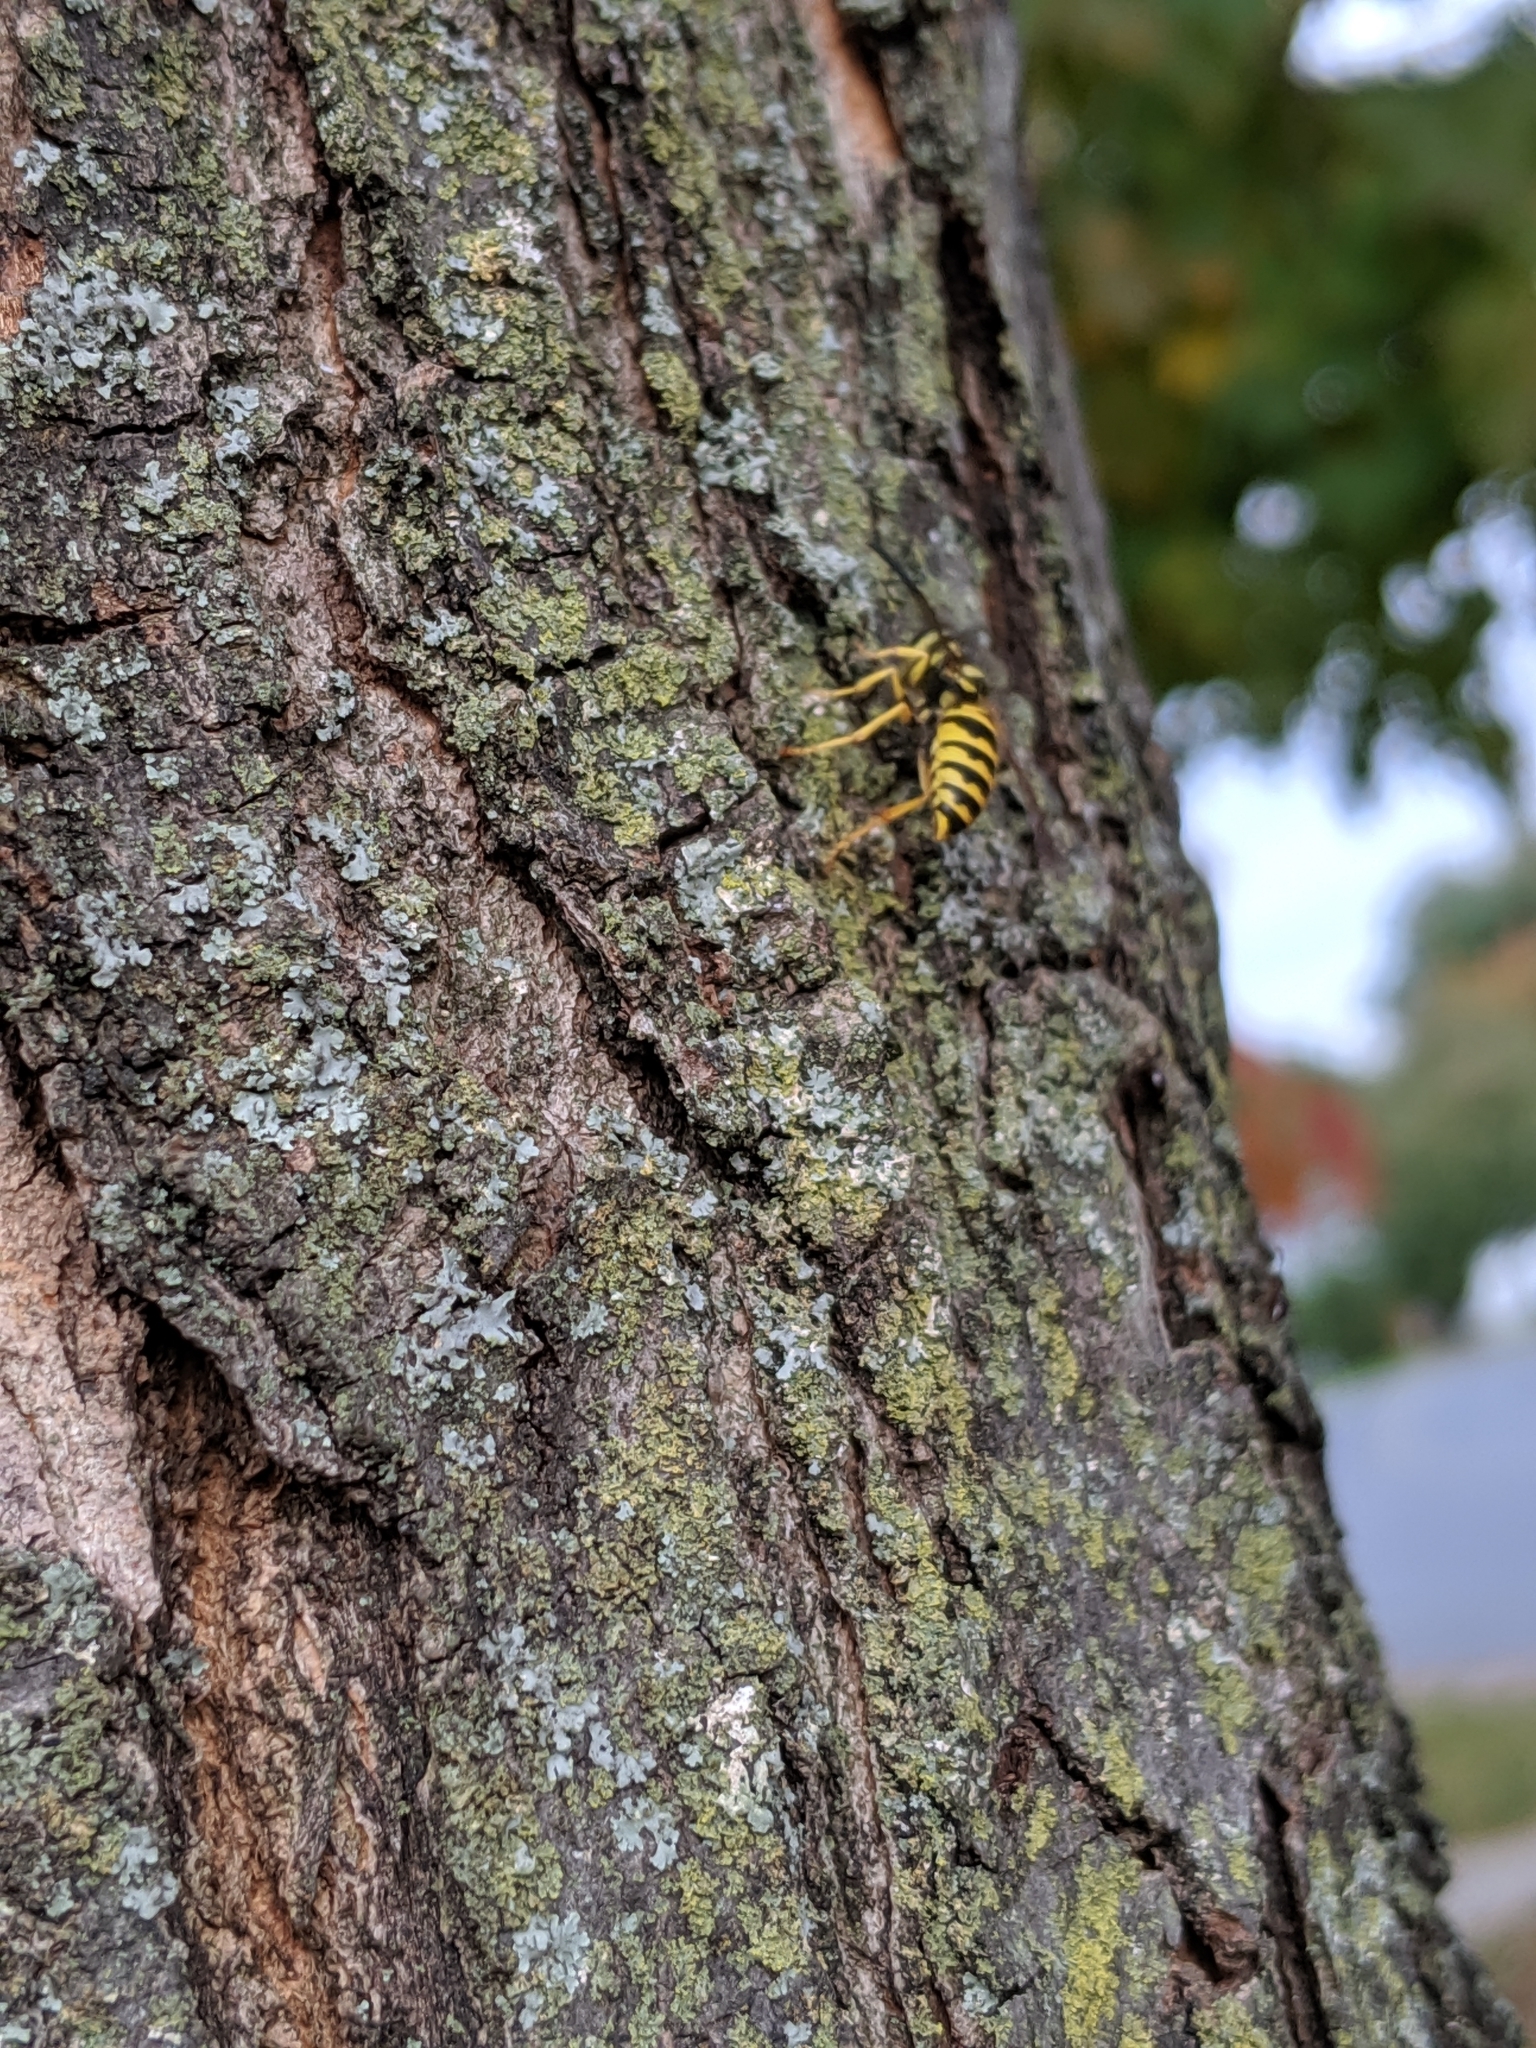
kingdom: Animalia
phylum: Arthropoda
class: Insecta
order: Hymenoptera
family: Vespidae
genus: Vespula
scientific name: Vespula maculifrons
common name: Eastern yellowjacket
